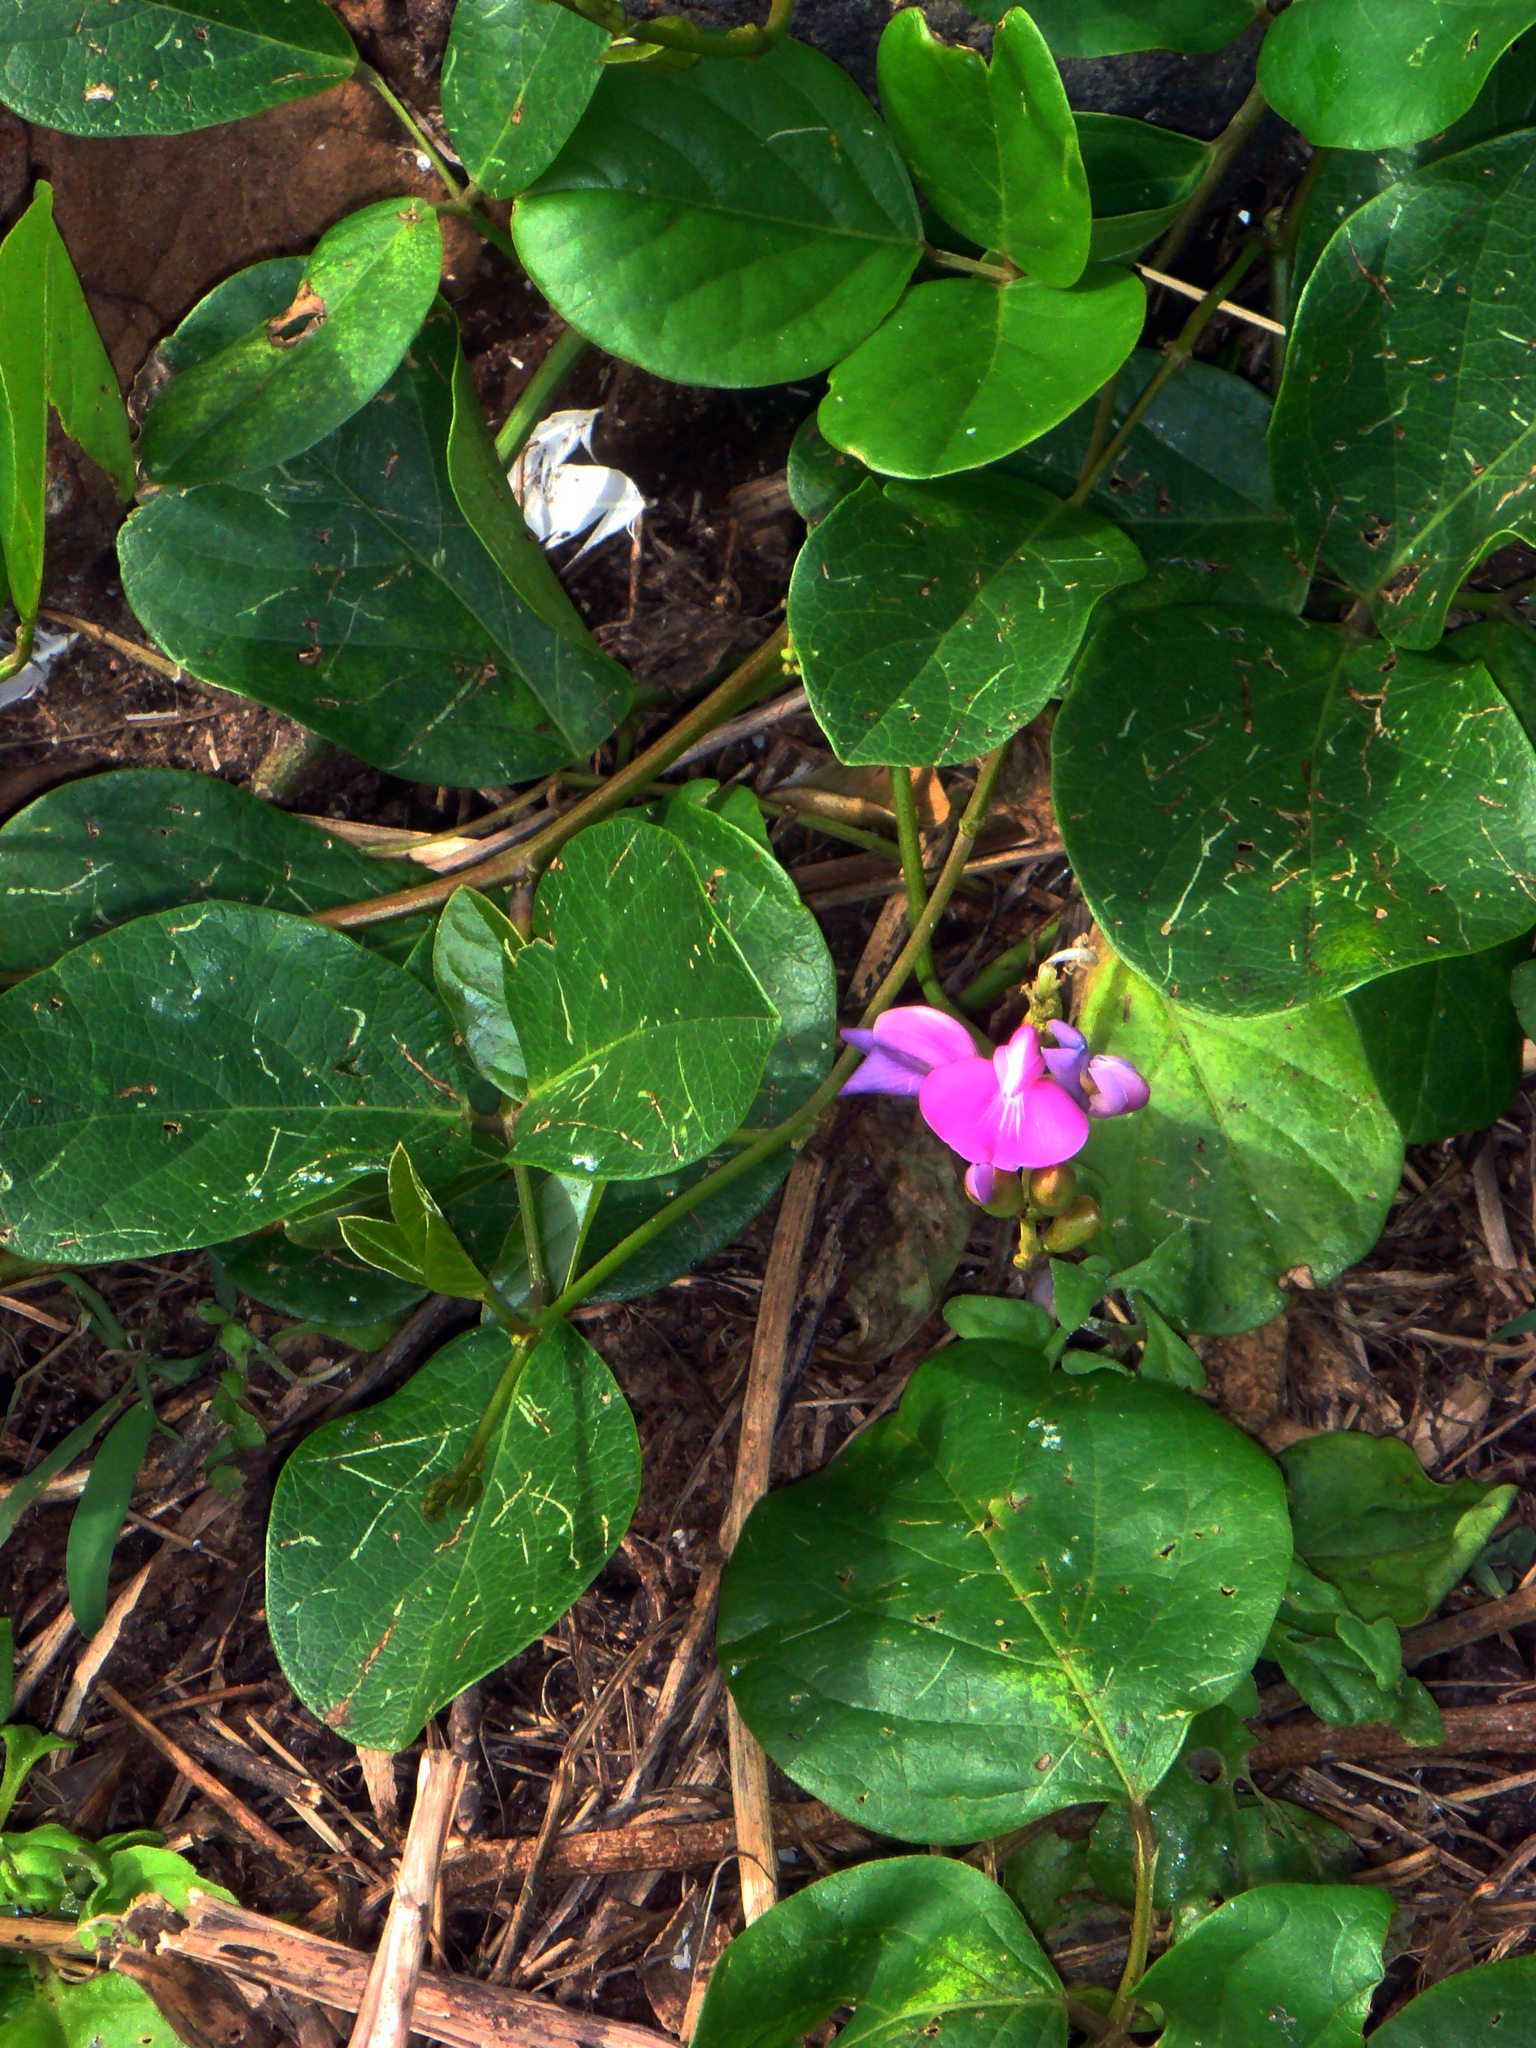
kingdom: Plantae
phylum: Tracheophyta
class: Magnoliopsida
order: Fabales
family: Fabaceae
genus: Canavalia
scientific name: Canavalia rosea
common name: Beach-bean
